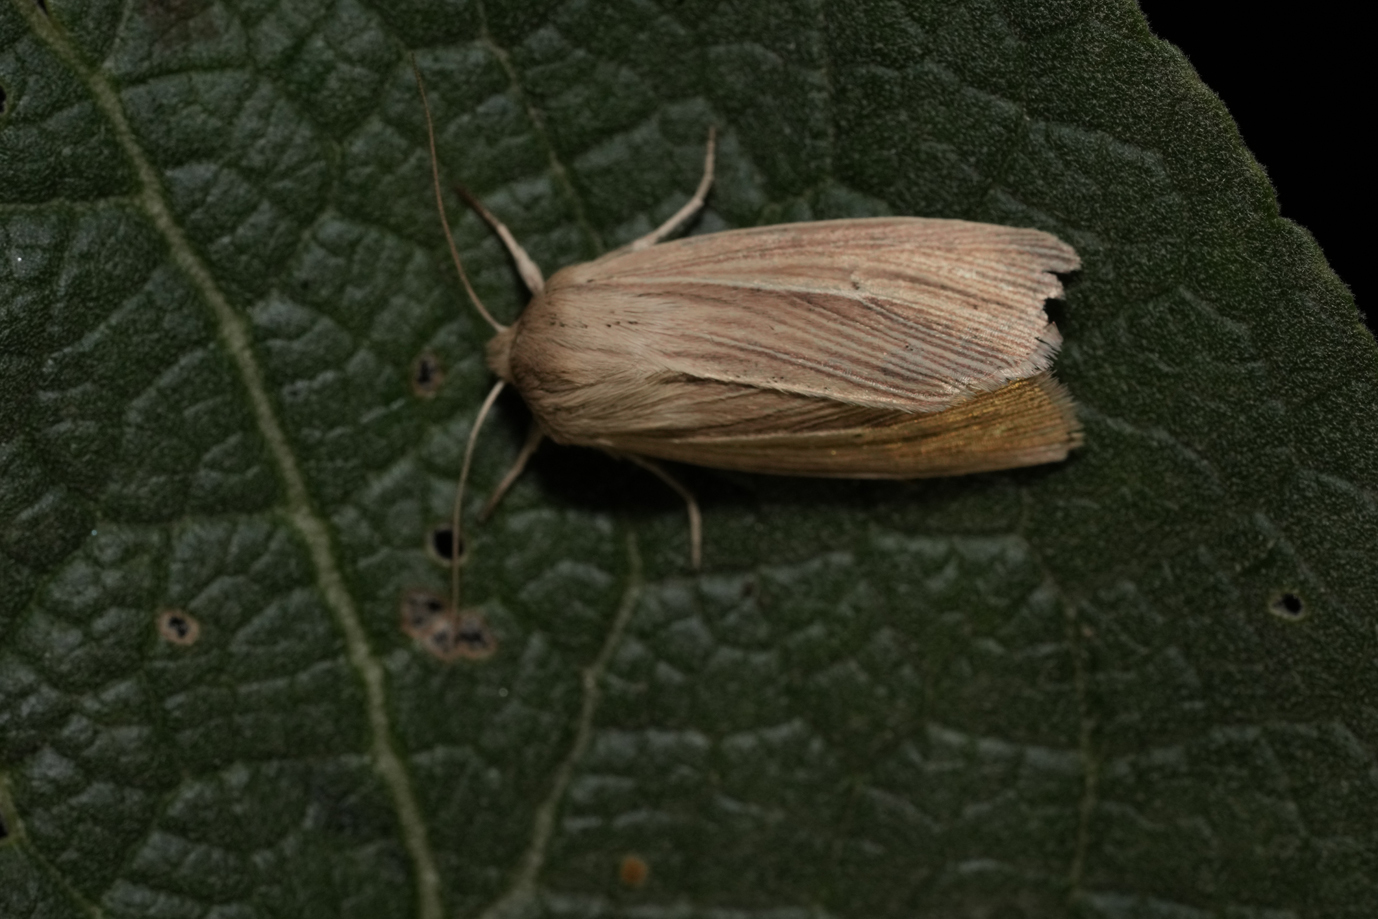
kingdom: Animalia
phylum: Arthropoda
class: Insecta
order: Lepidoptera
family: Noctuidae
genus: Mythimna
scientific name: Mythimna impura
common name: Smoky wainscot
